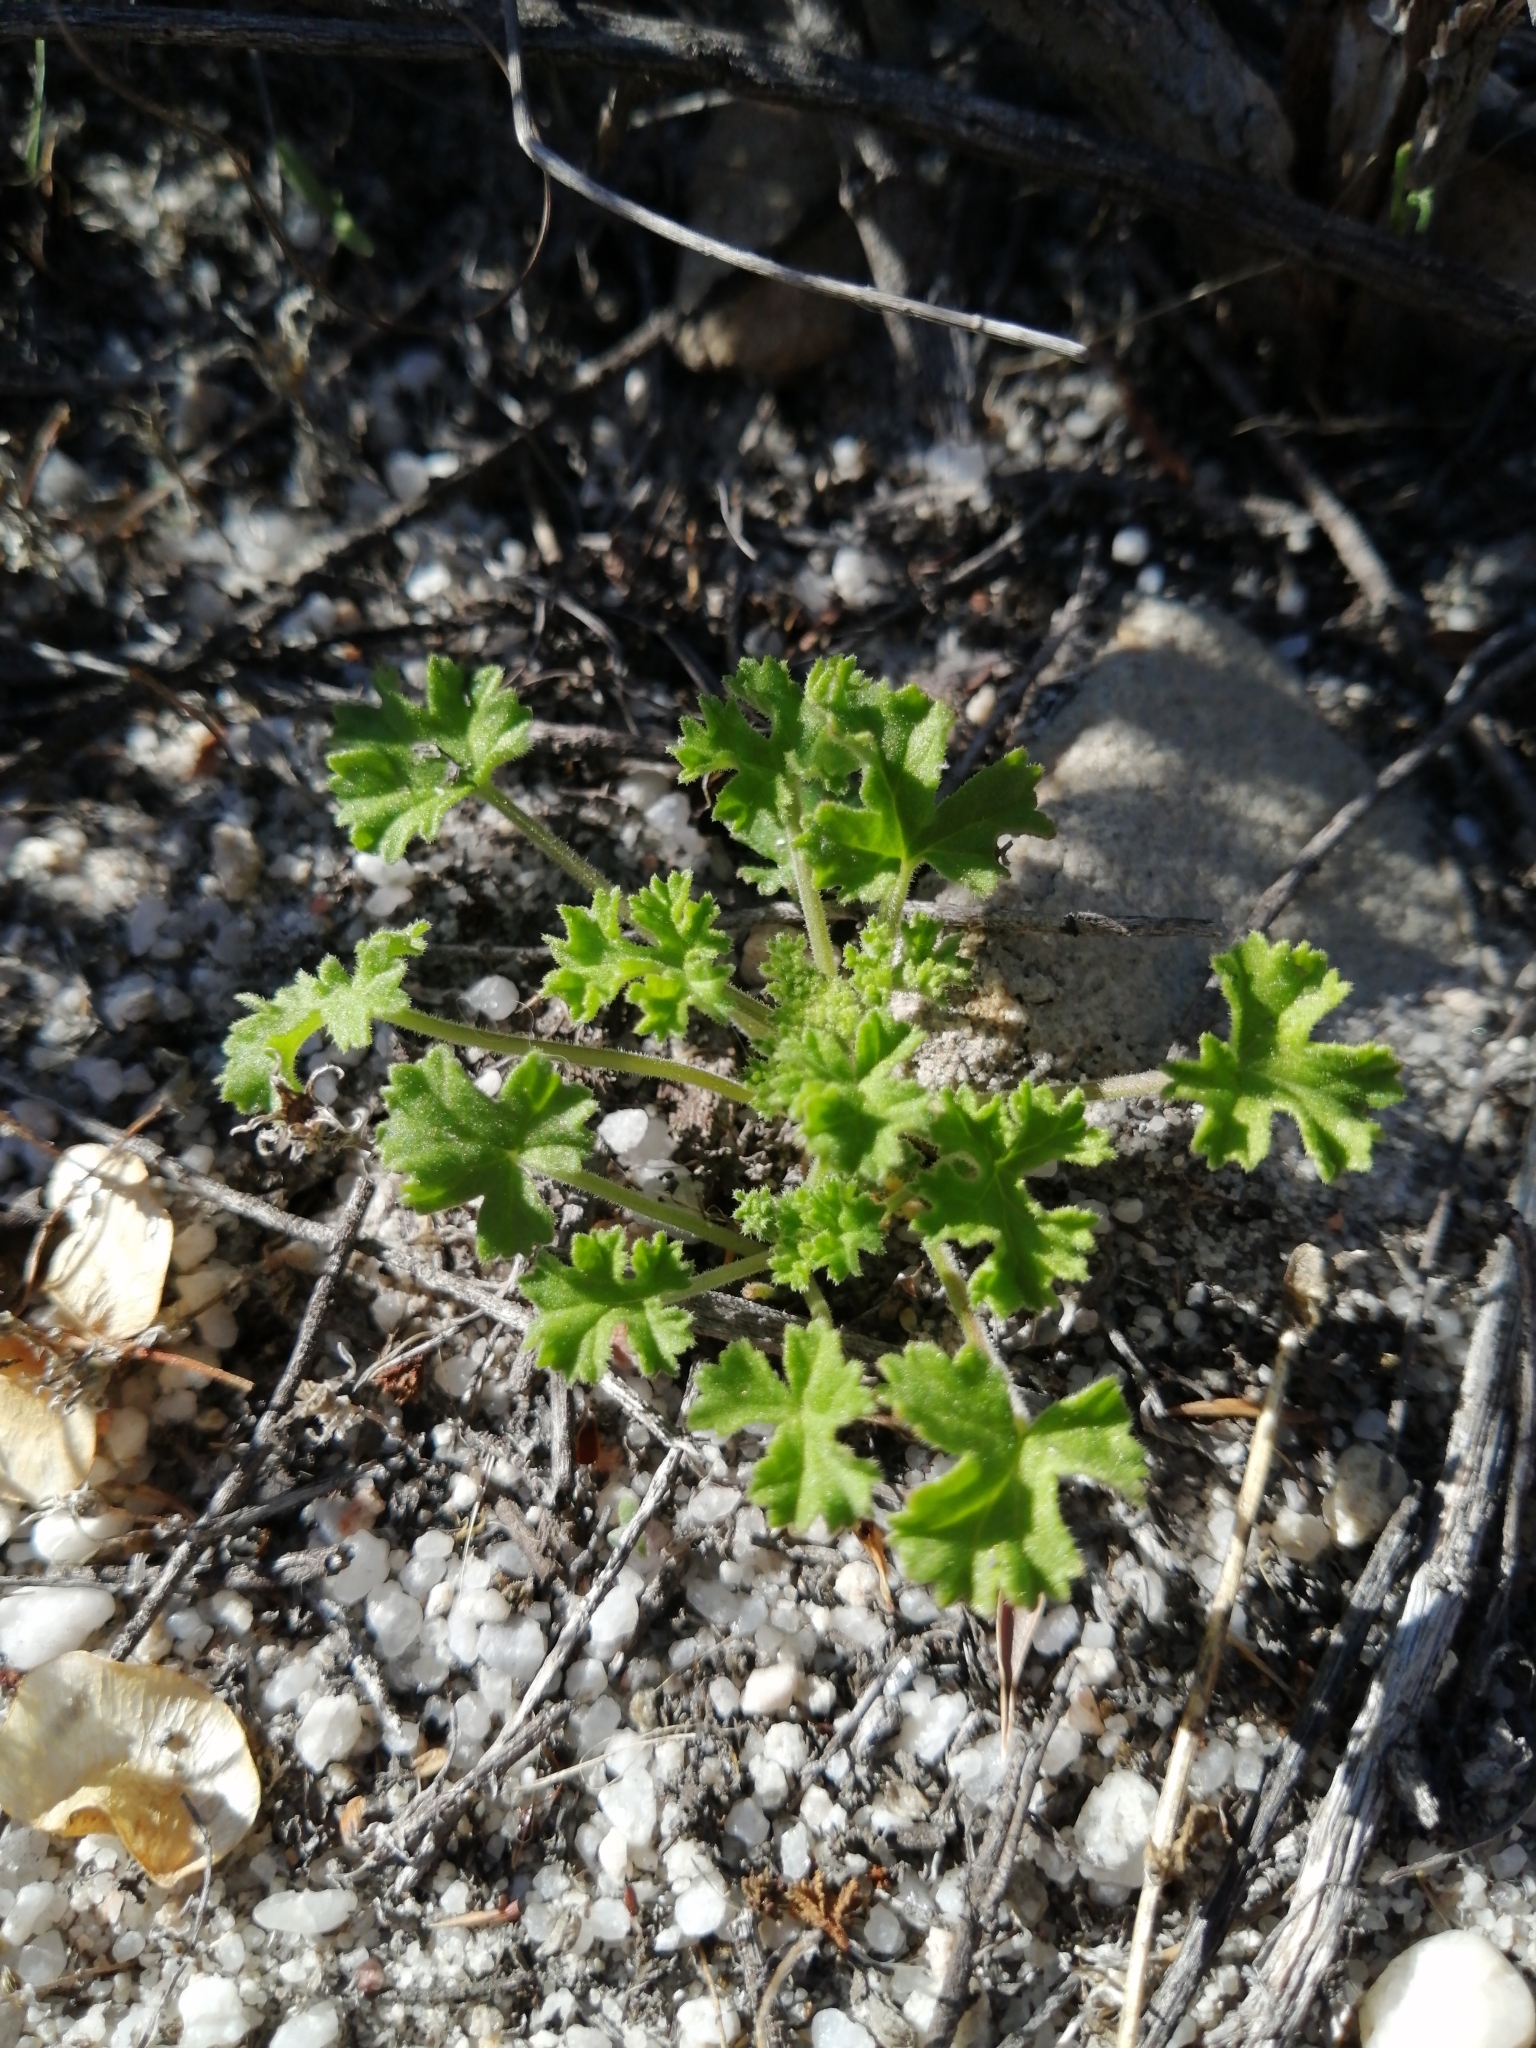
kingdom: Plantae
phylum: Tracheophyta
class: Magnoliopsida
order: Geraniales
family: Geraniaceae
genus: Pelargonium
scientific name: Pelargonium crispum
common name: Crisped-leaf pelargonium
